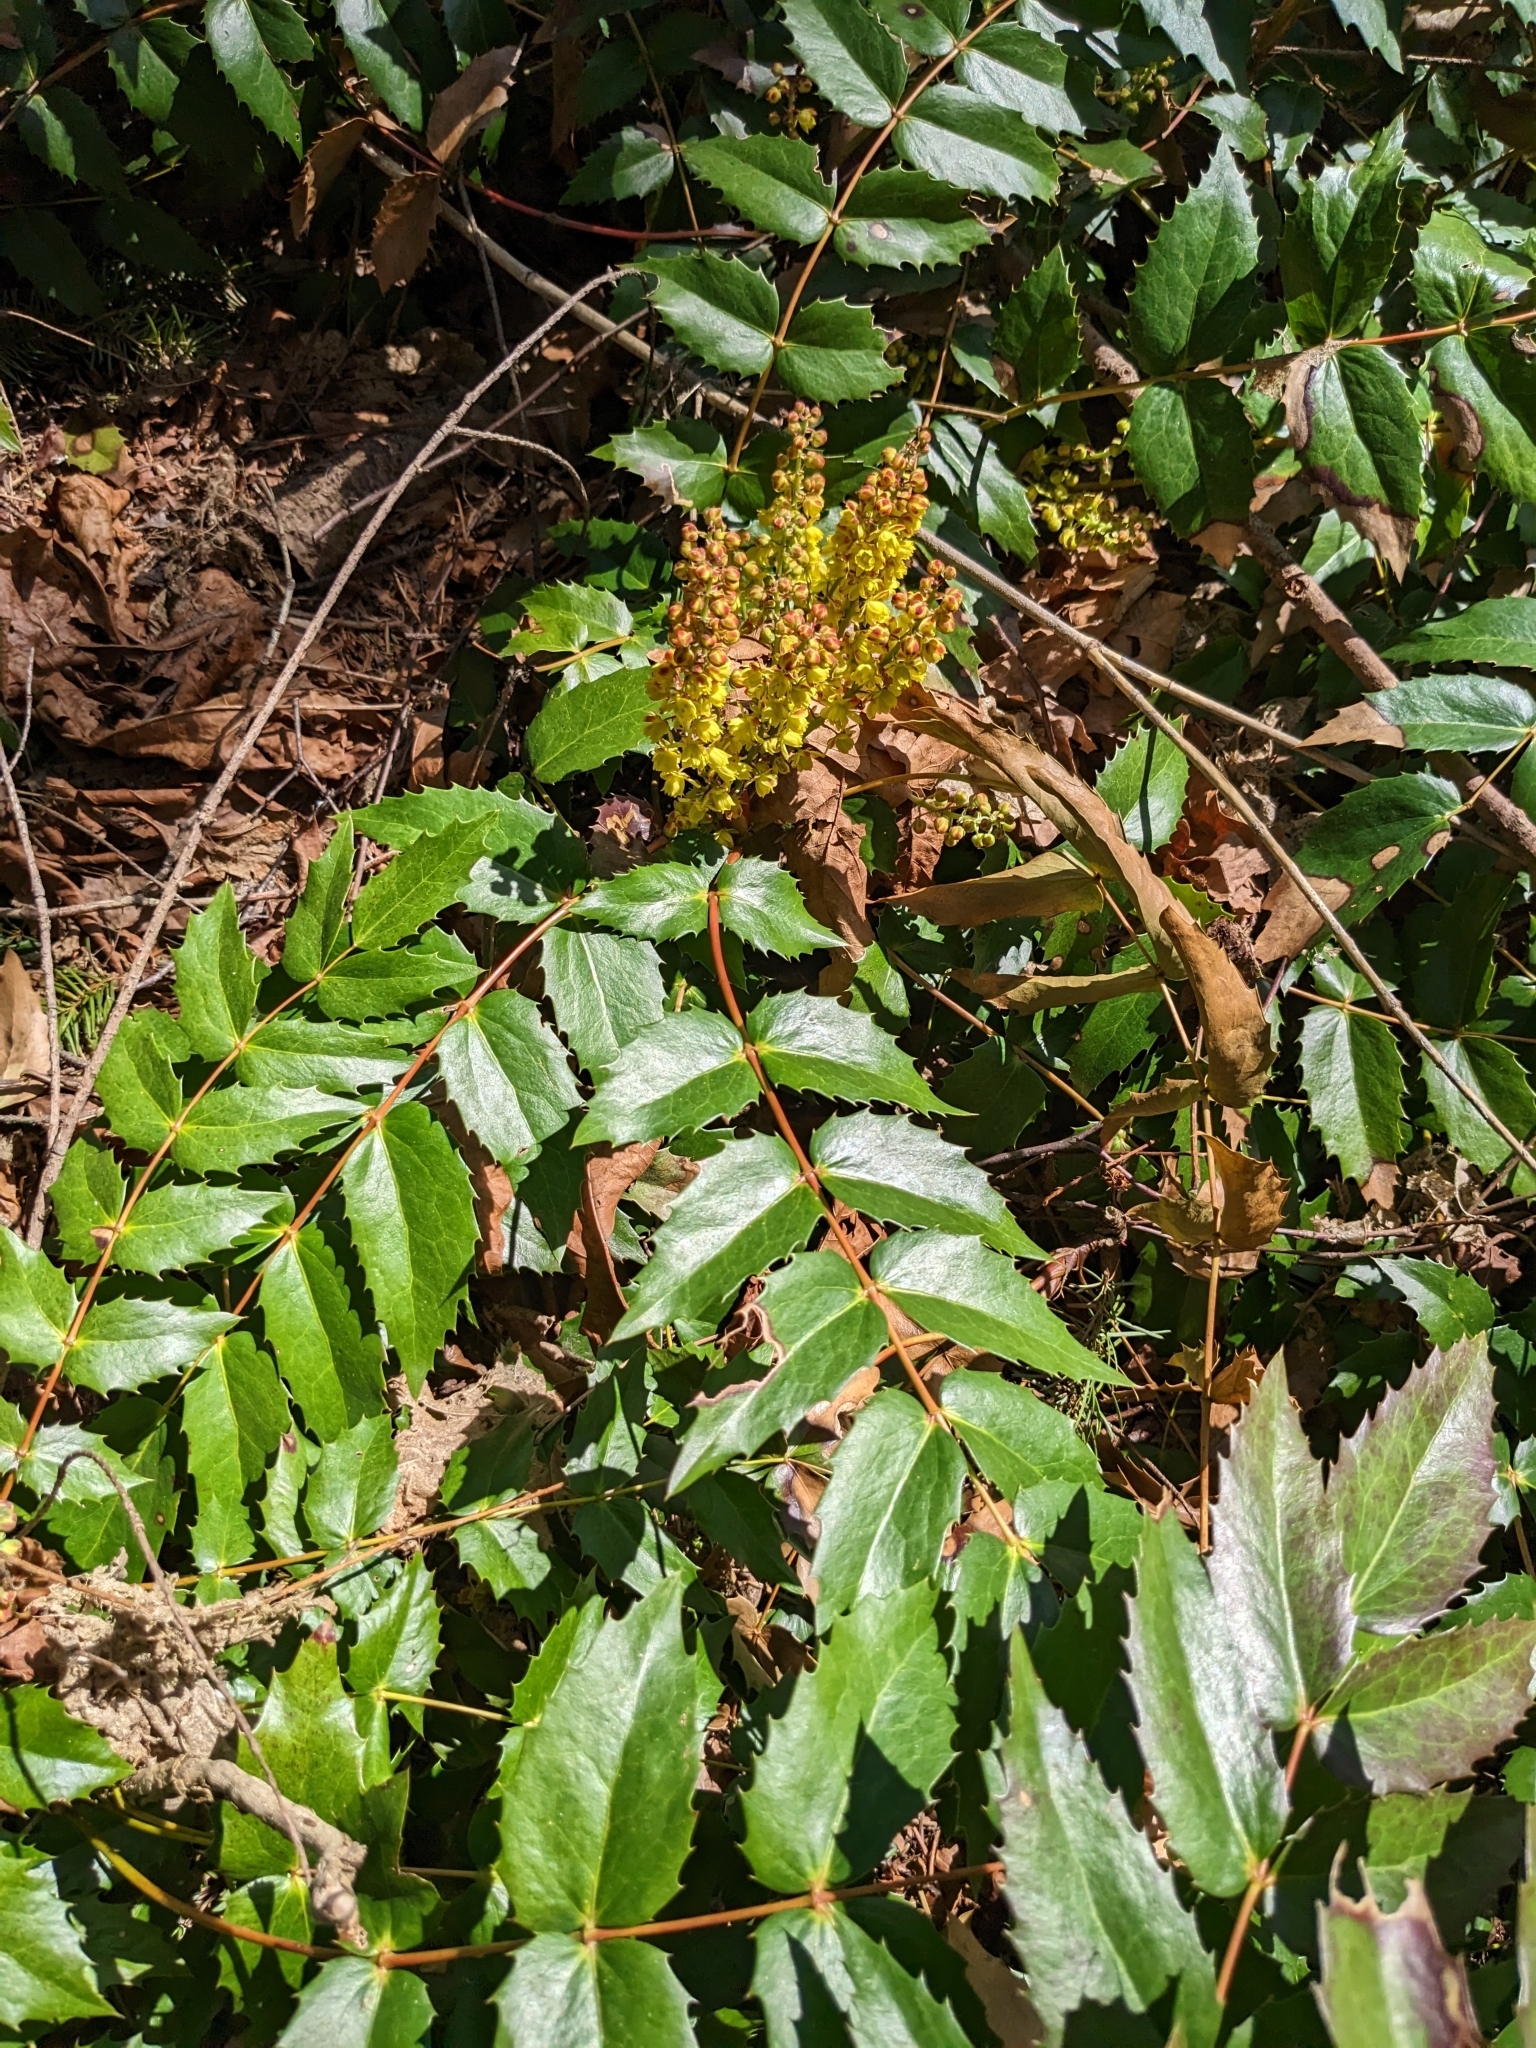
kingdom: Plantae
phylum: Tracheophyta
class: Magnoliopsida
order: Ranunculales
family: Berberidaceae
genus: Mahonia
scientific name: Mahonia nervosa
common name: Cascade oregon-grape
